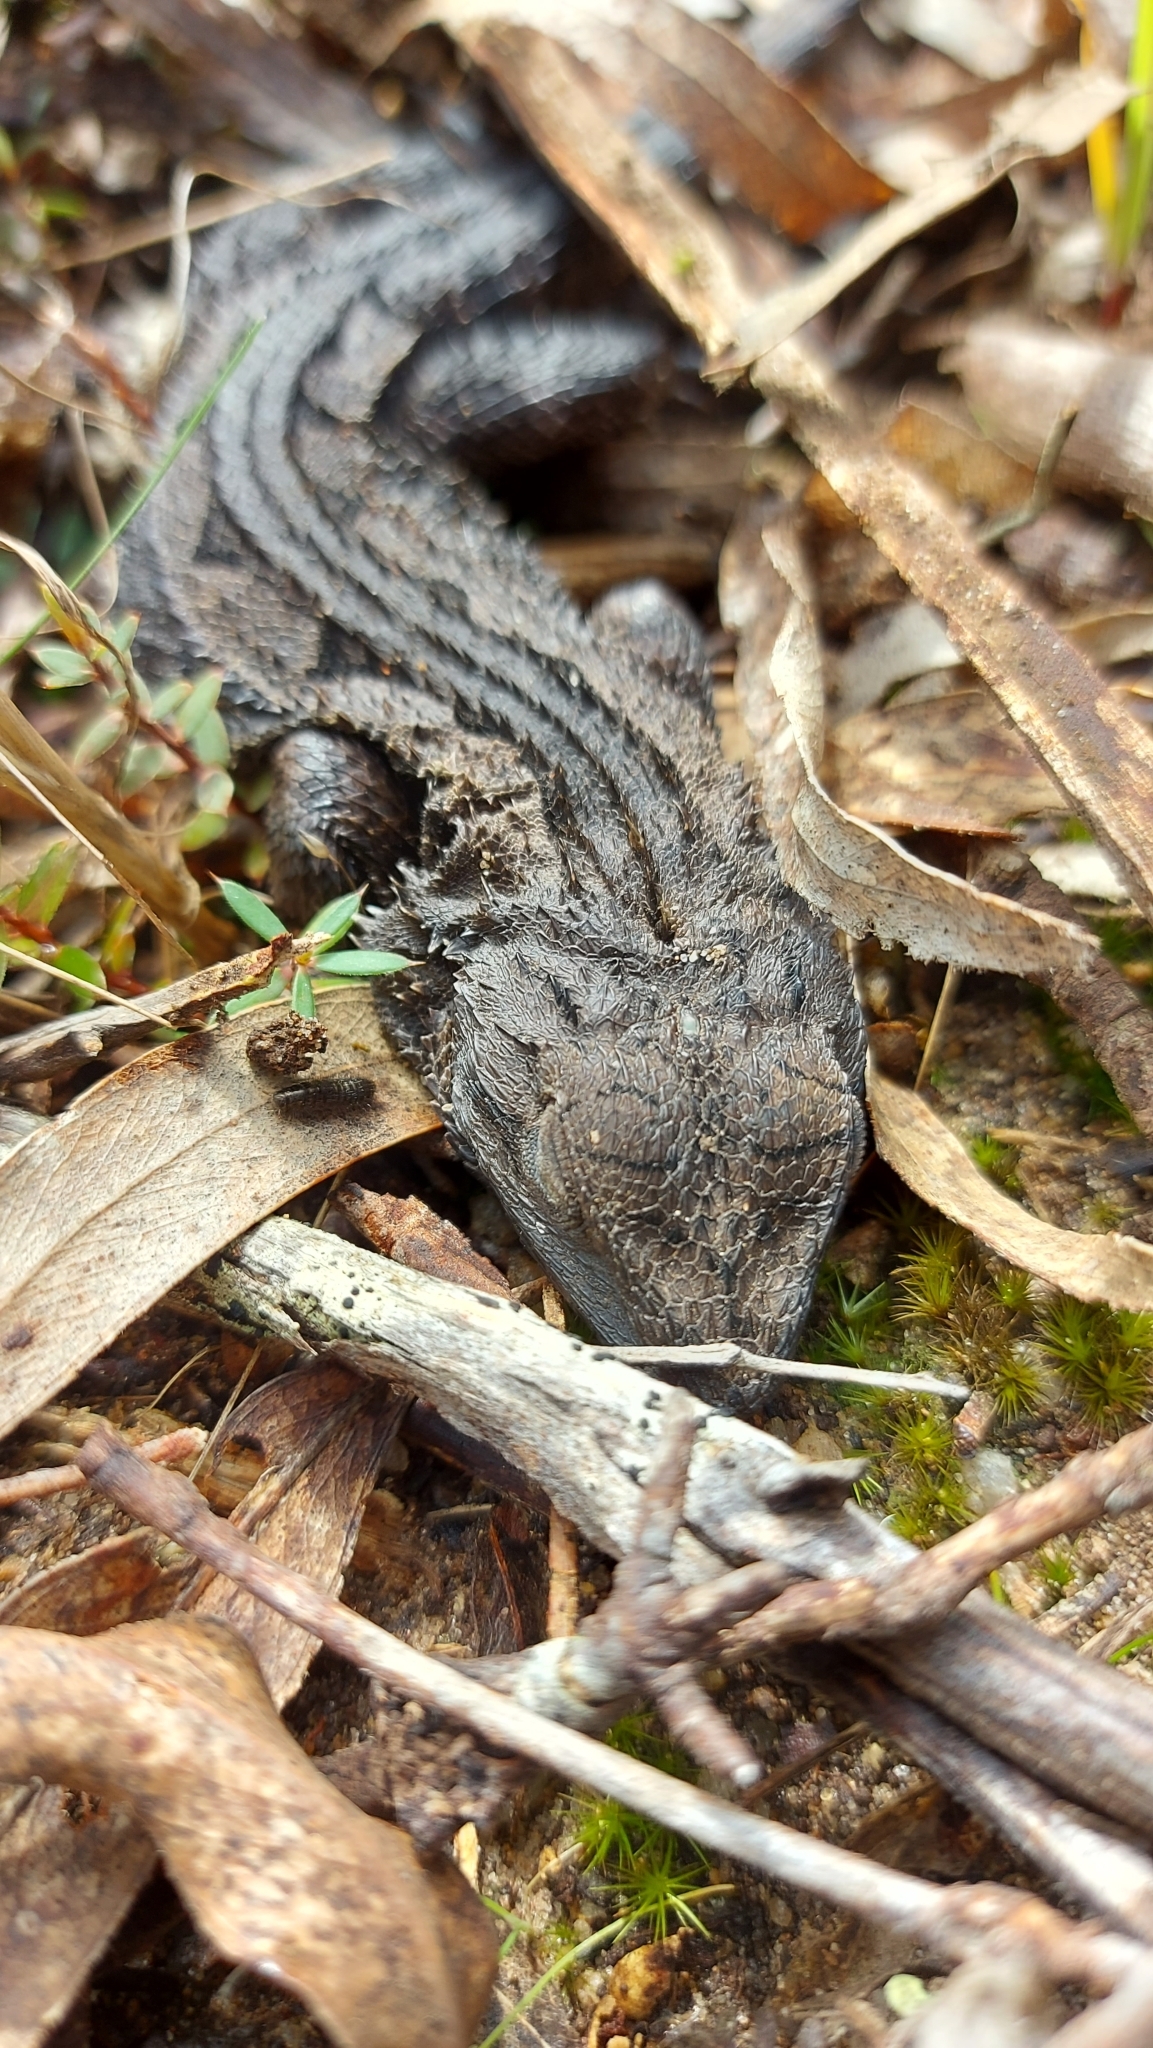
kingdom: Animalia
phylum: Chordata
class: Squamata
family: Agamidae
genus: Amphibolurus
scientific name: Amphibolurus muricatus
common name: Jacky lizard
